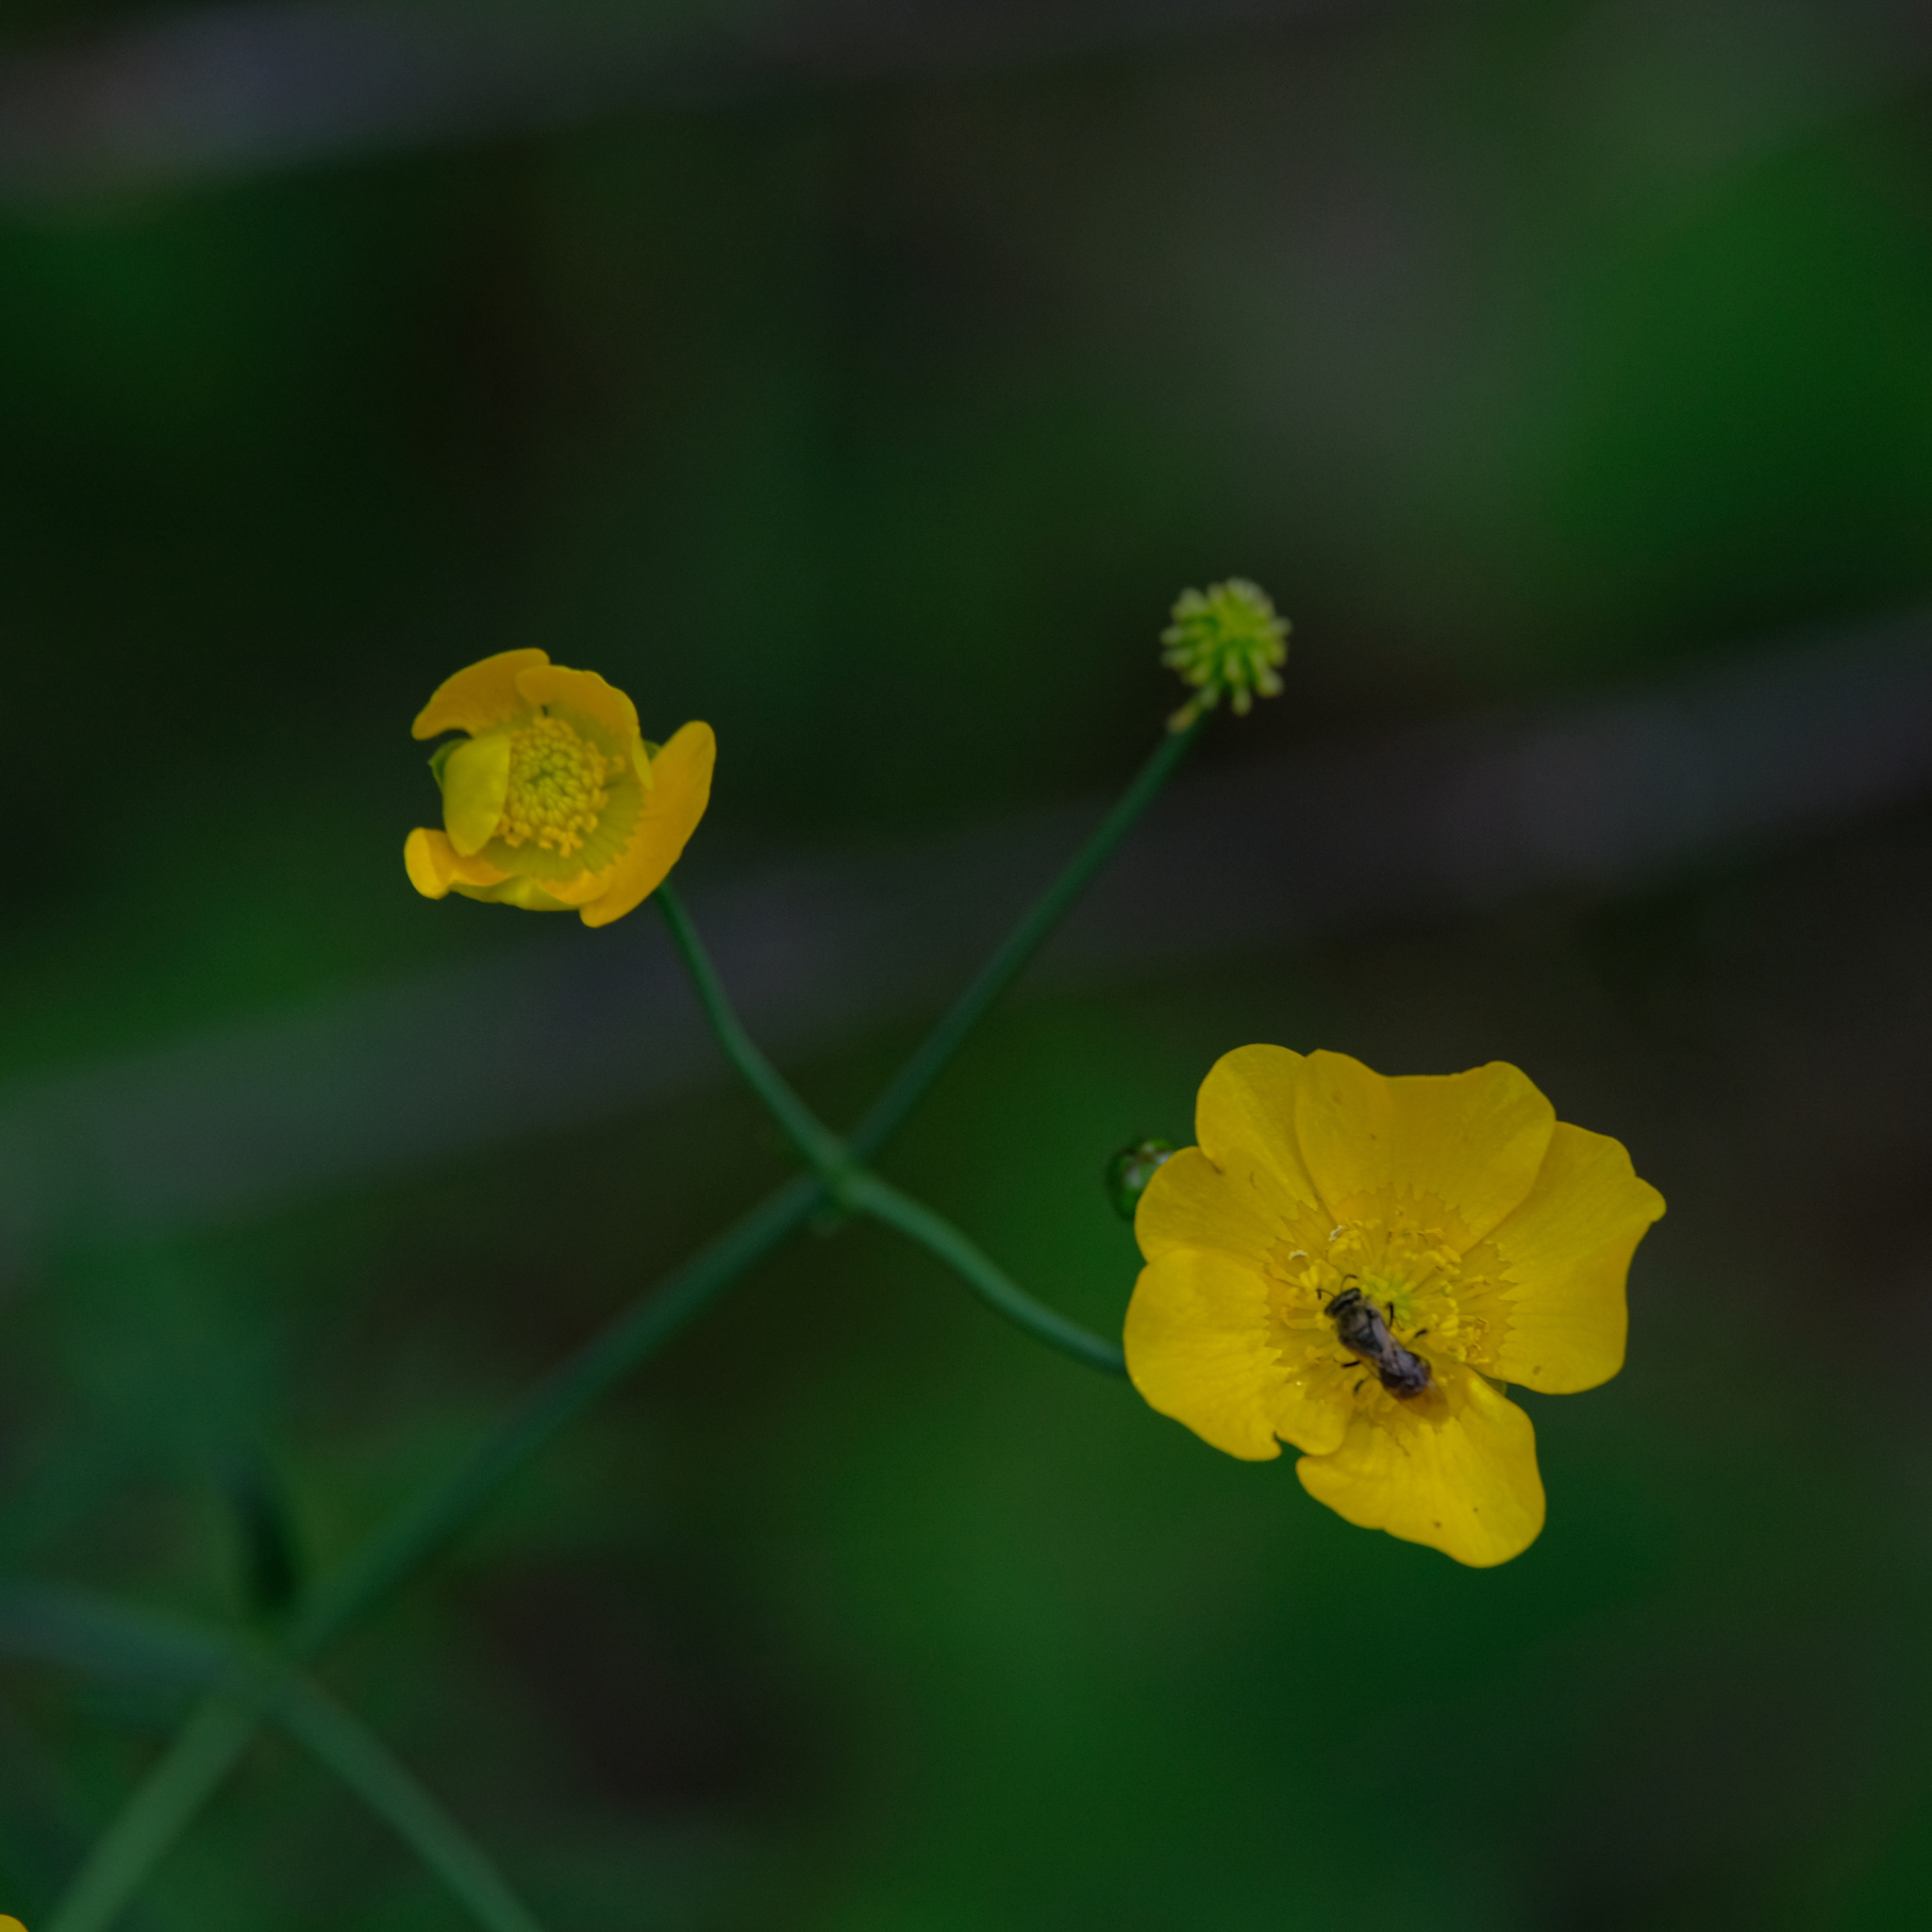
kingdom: Plantae
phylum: Tracheophyta
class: Magnoliopsida
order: Ranunculales
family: Ranunculaceae
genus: Ranunculus
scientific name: Ranunculus acris
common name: Meadow buttercup
